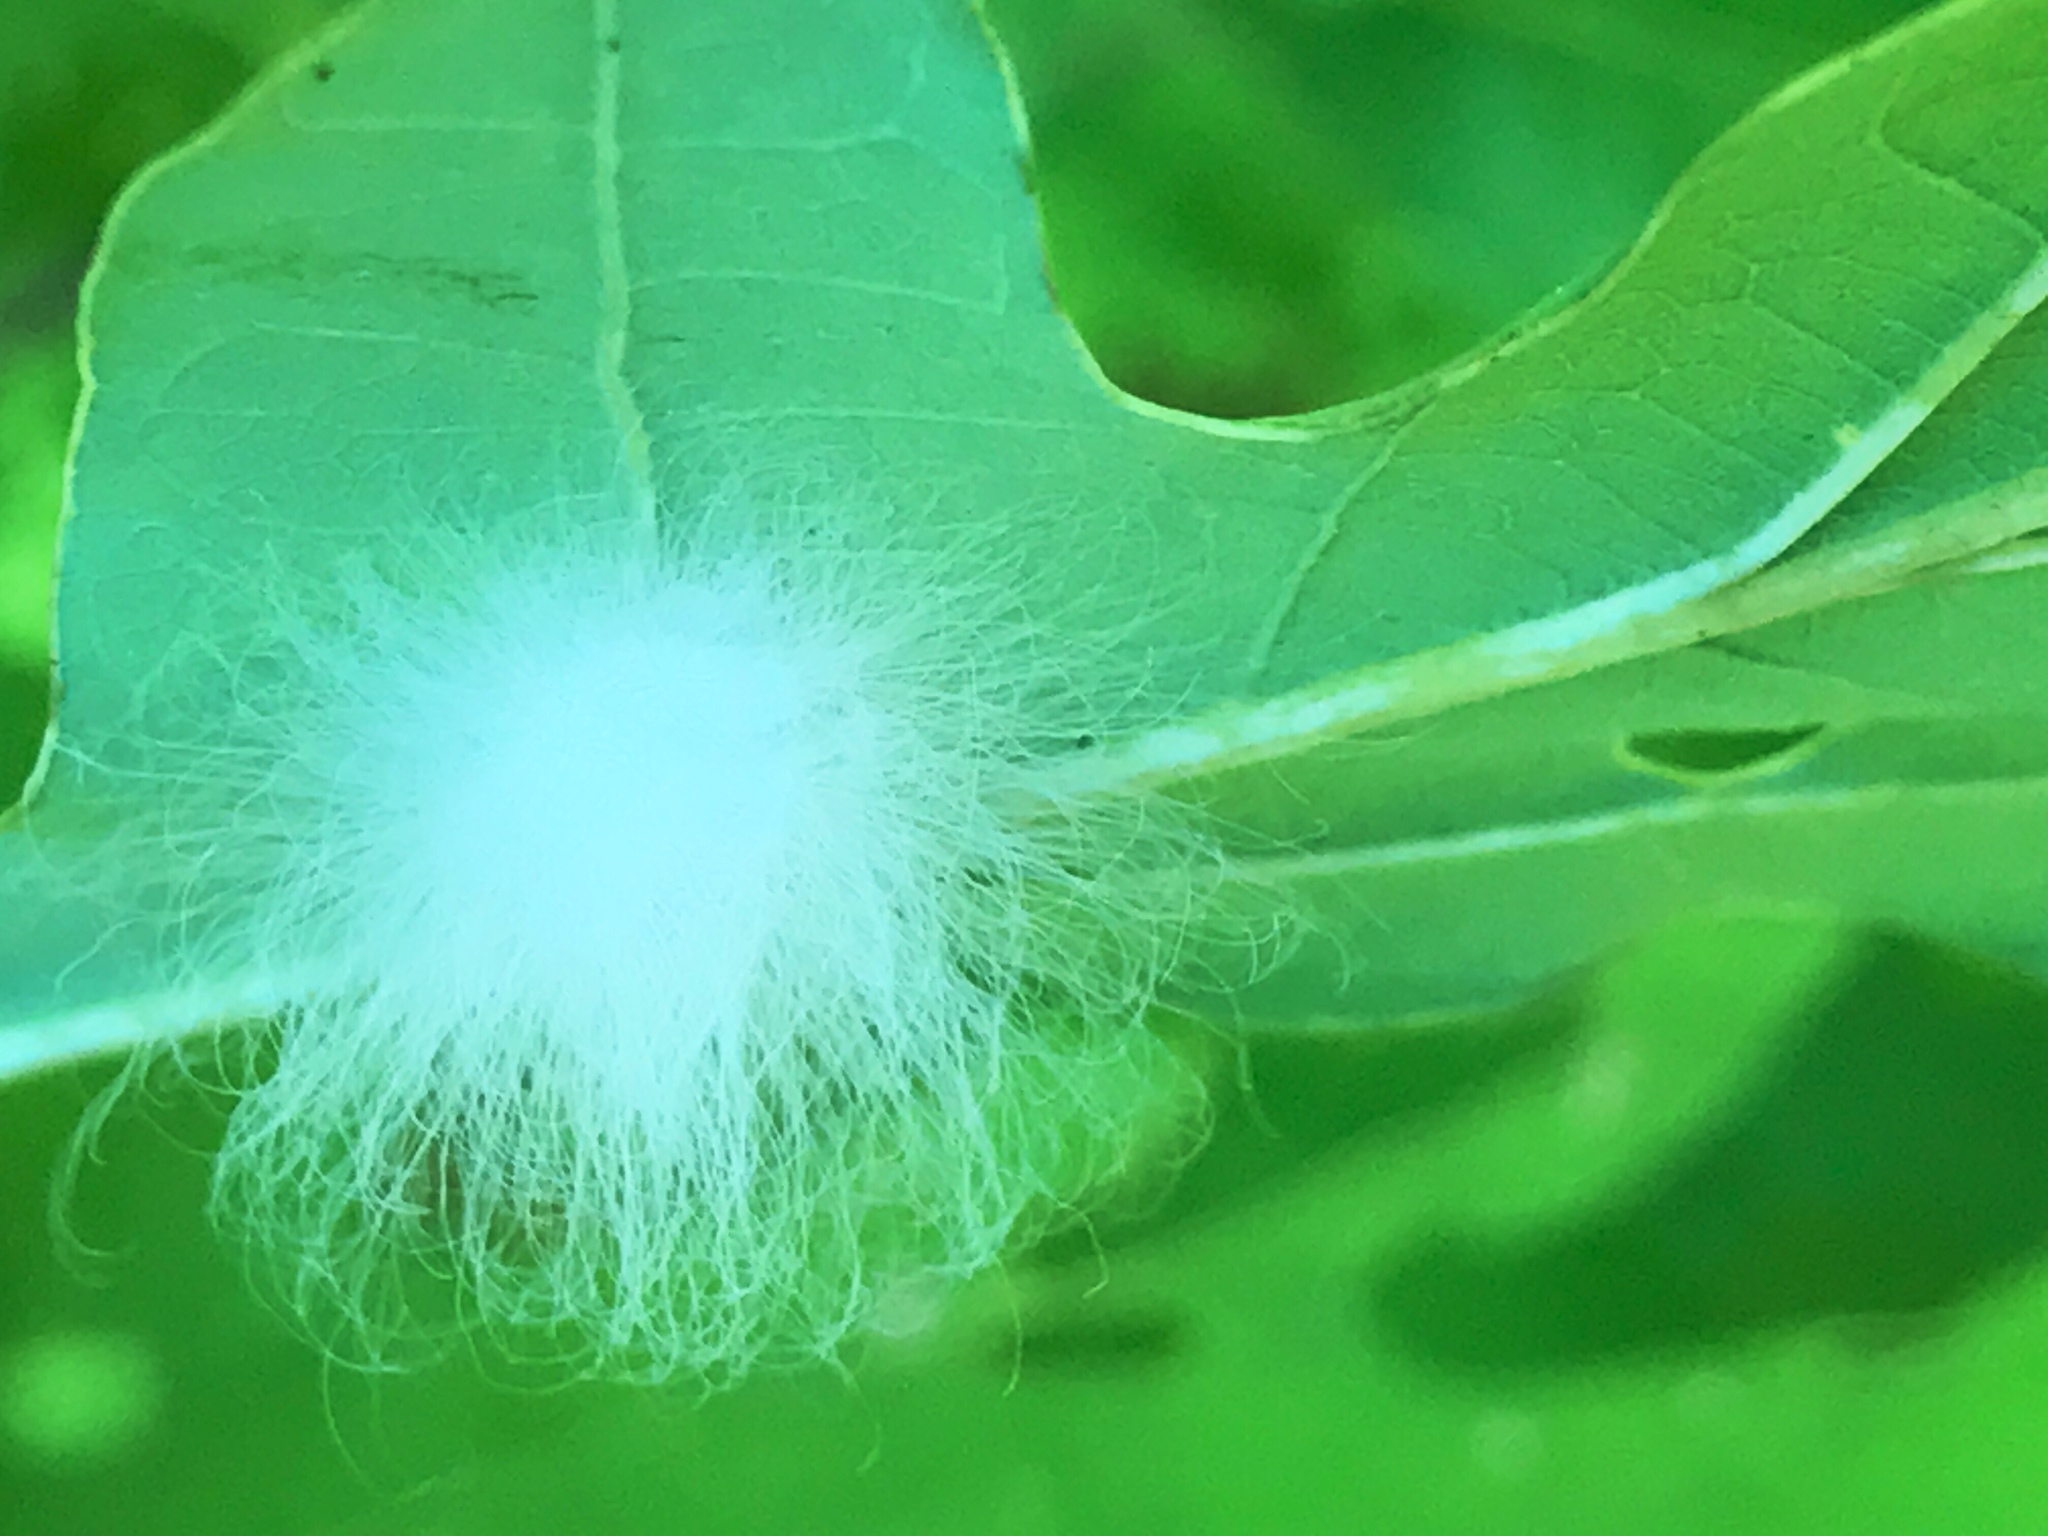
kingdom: Animalia
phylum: Arthropoda
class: Insecta
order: Lepidoptera
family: Megalopygidae
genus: Megalopyge
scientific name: Megalopyge crispata
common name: Black-waved flannel moth
